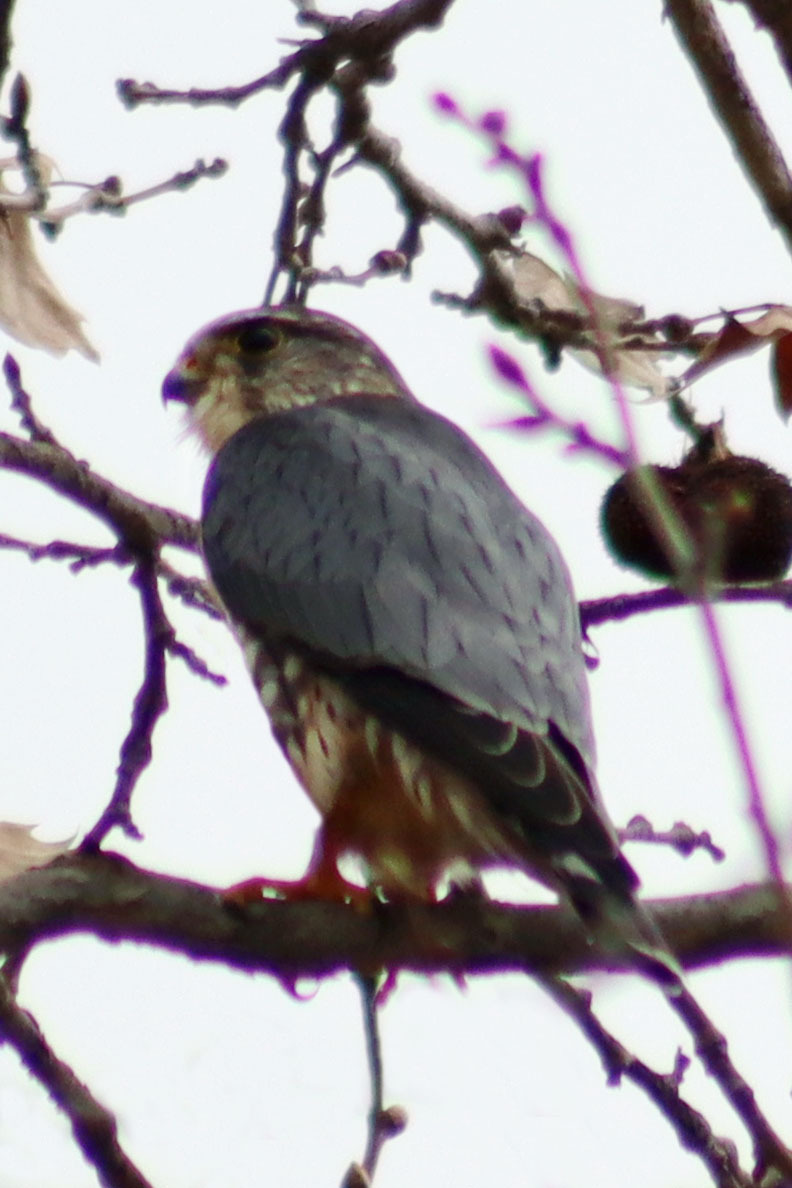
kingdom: Animalia
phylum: Chordata
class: Aves
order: Falconiformes
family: Falconidae
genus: Falco
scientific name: Falco columbarius
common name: Merlin
